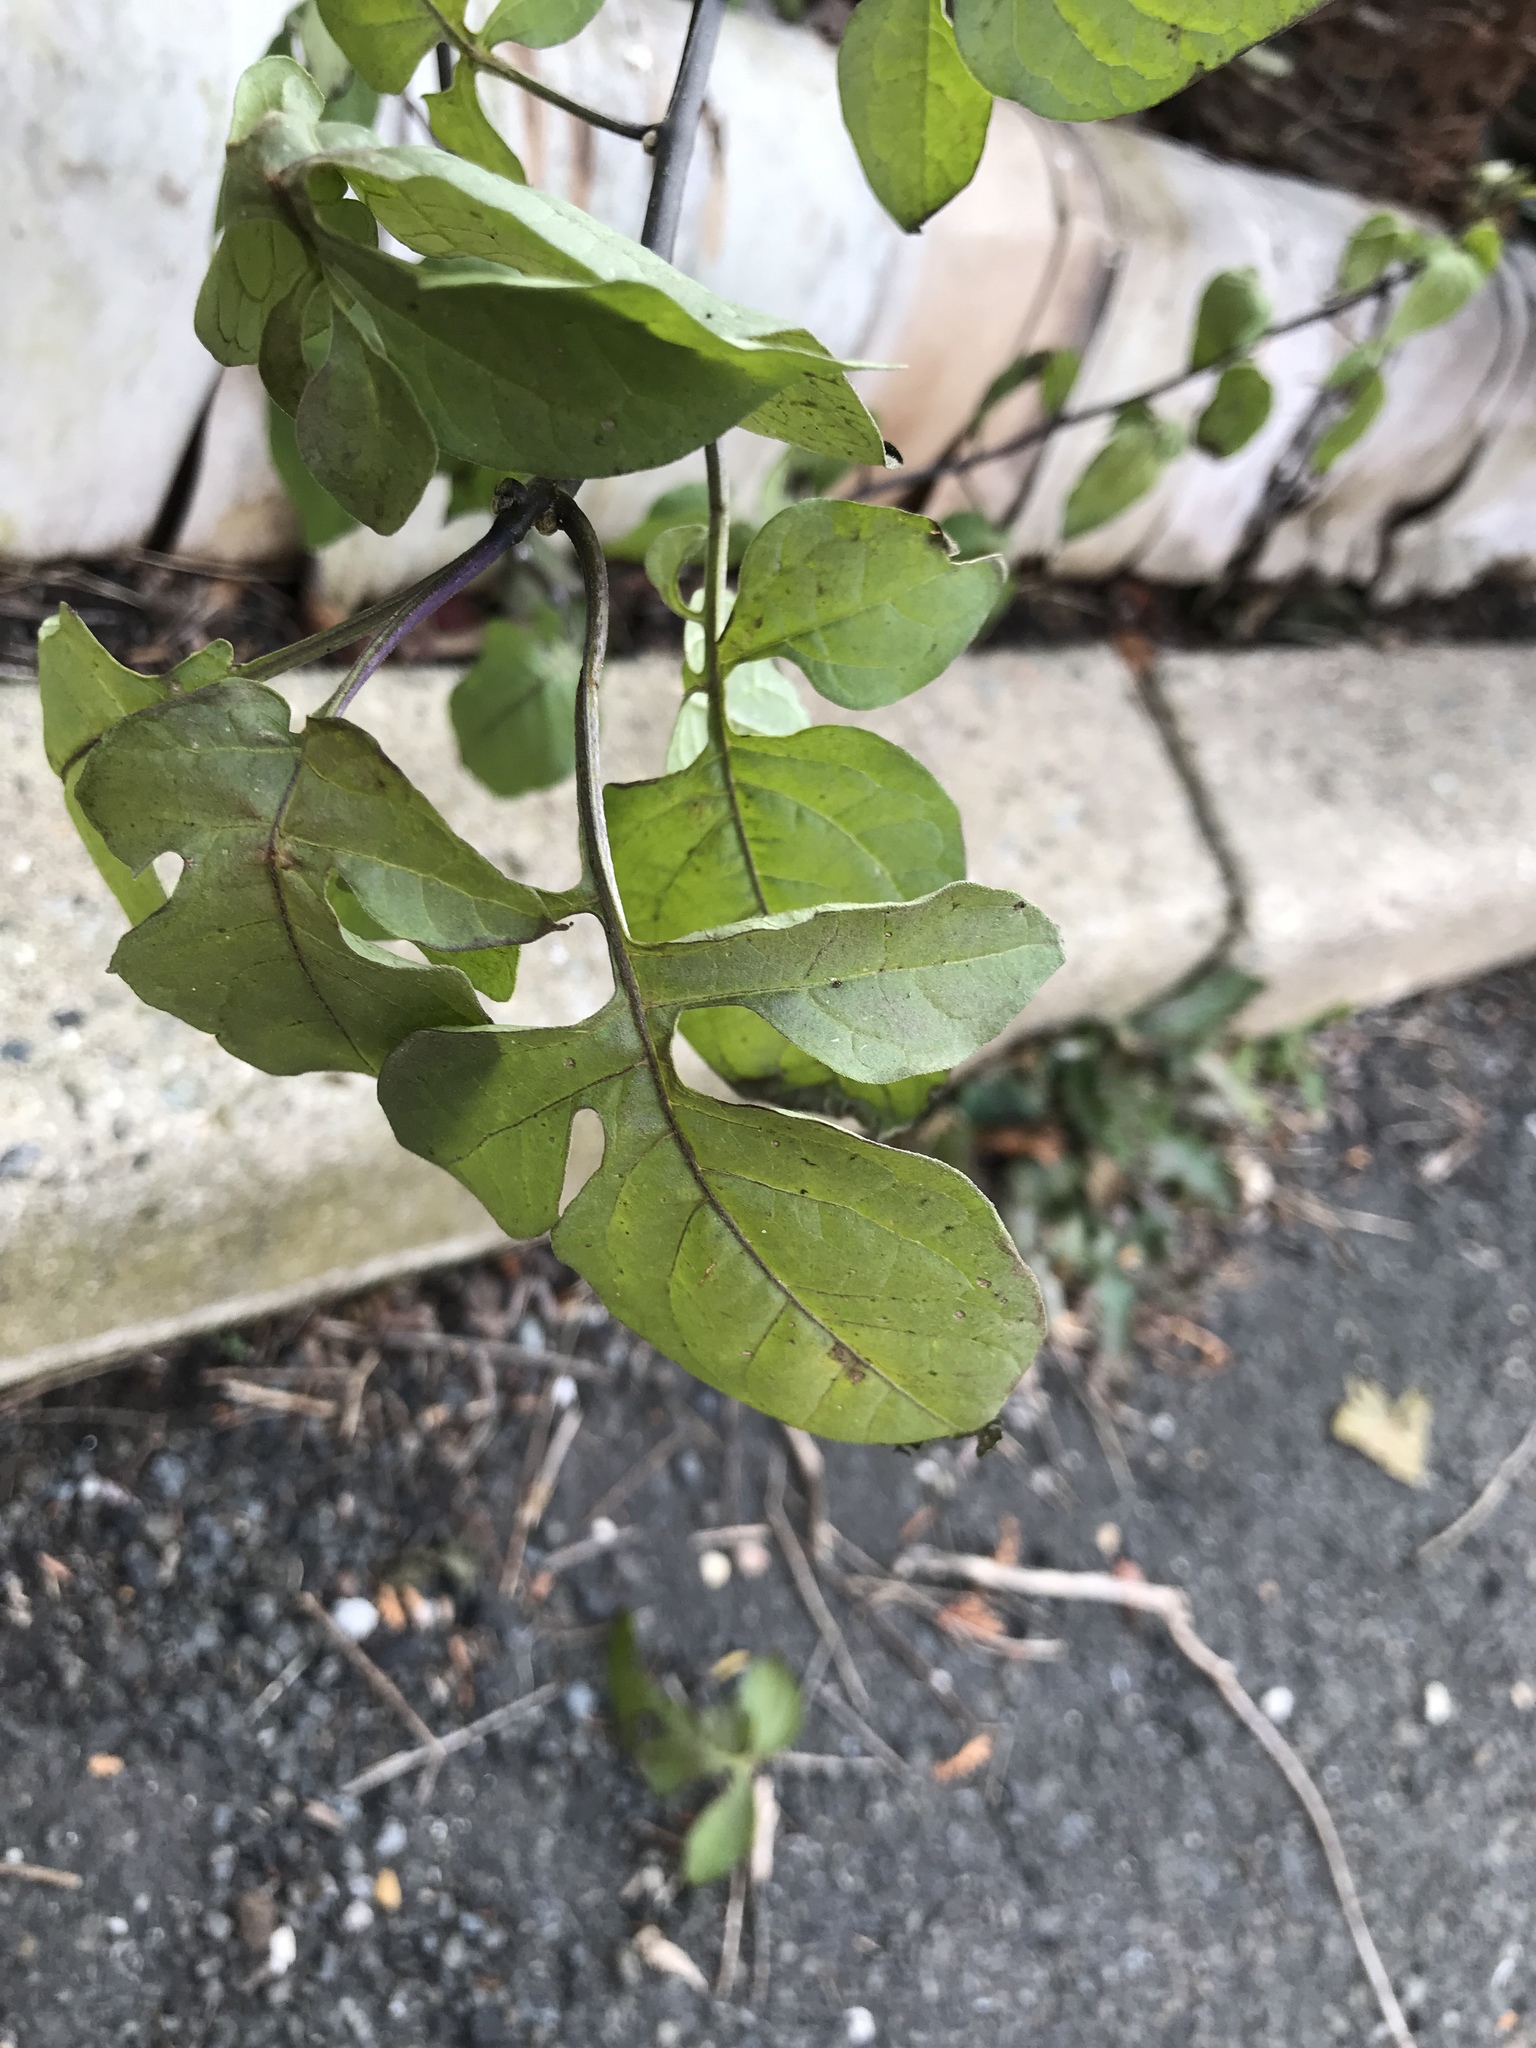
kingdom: Plantae
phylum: Tracheophyta
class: Magnoliopsida
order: Solanales
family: Solanaceae
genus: Solanum
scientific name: Solanum dulcamara
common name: Climbing nightshade
